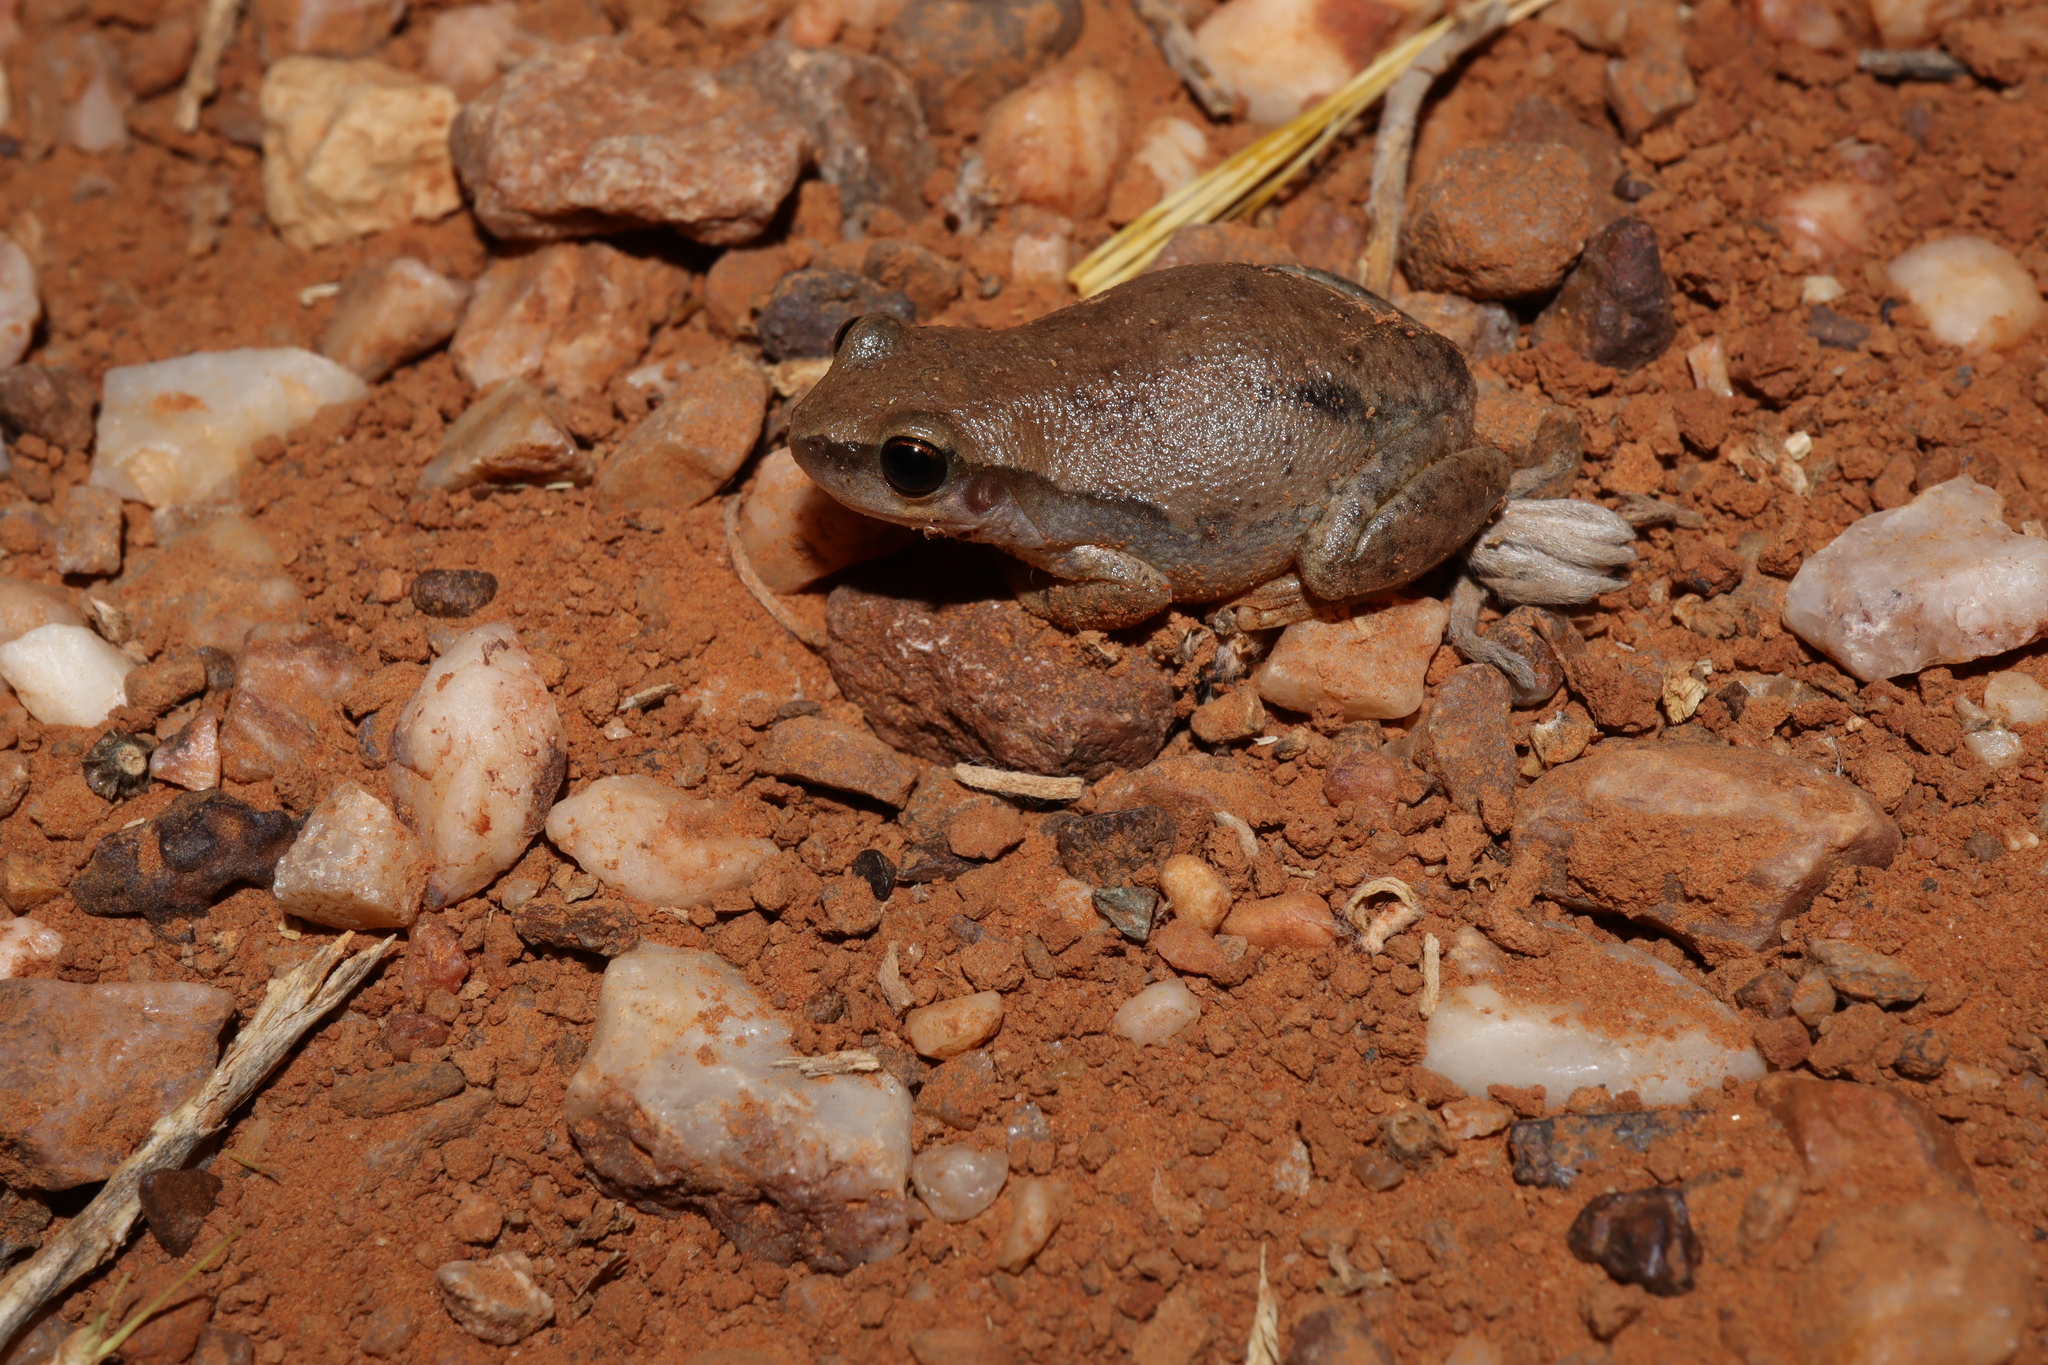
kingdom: Animalia
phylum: Chordata
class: Amphibia
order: Anura
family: Pelodryadidae
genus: Litoria
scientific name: Litoria rubella
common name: Desert tree frog
